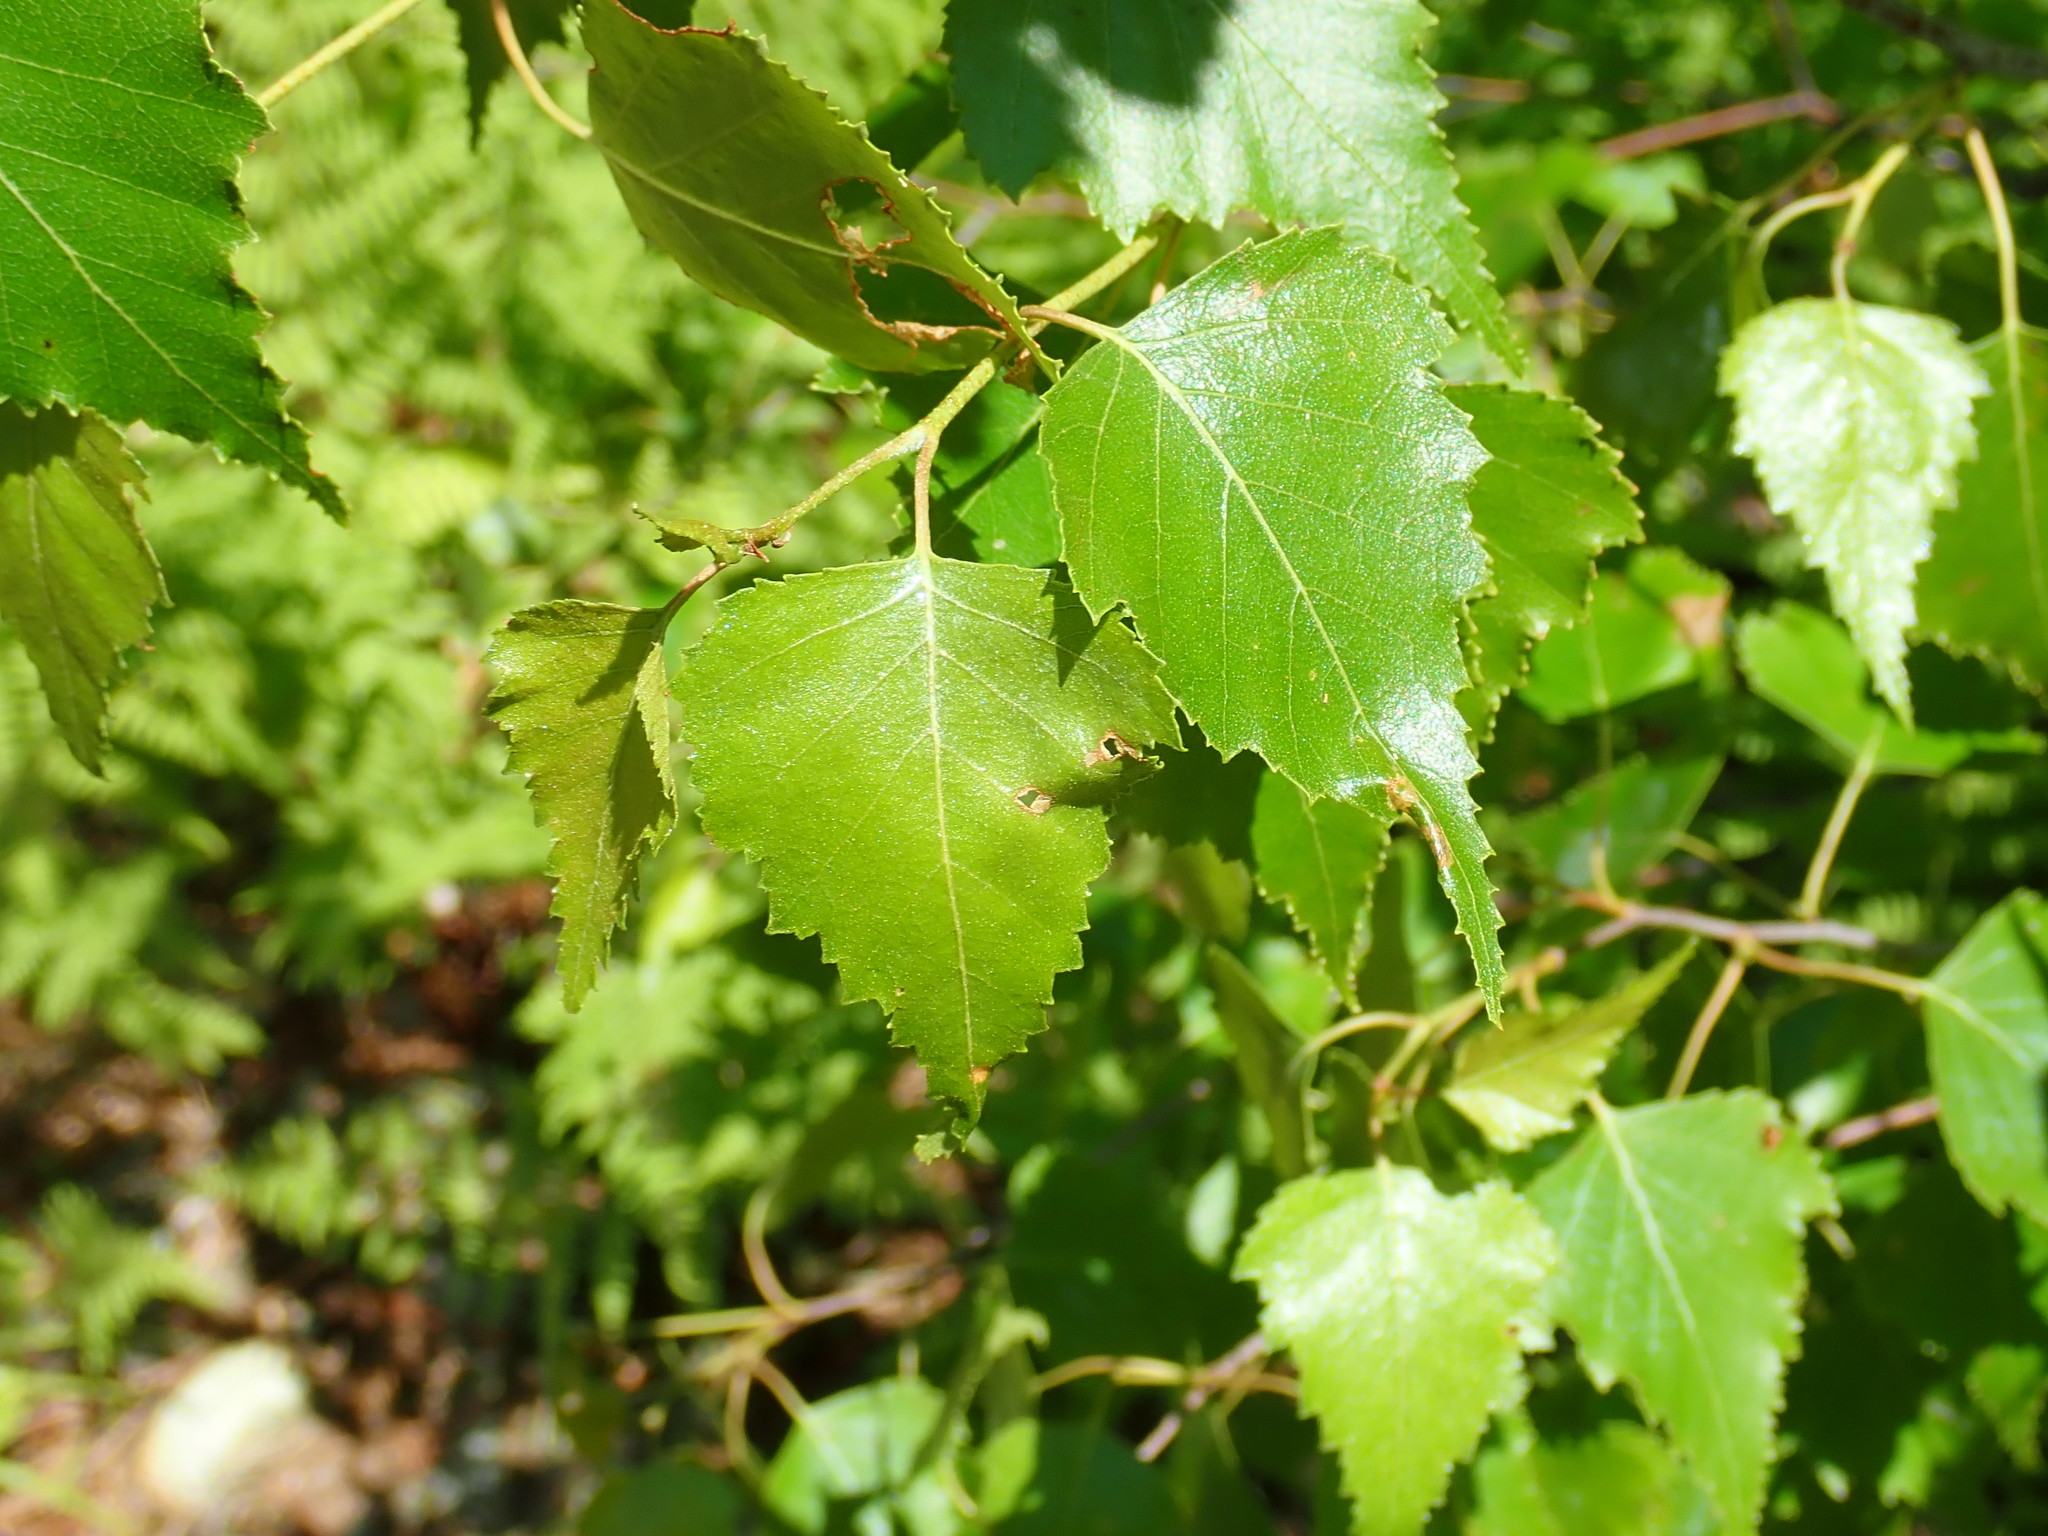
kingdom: Plantae
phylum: Tracheophyta
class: Magnoliopsida
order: Fagales
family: Betulaceae
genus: Betula
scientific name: Betula populifolia
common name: Fire birch
